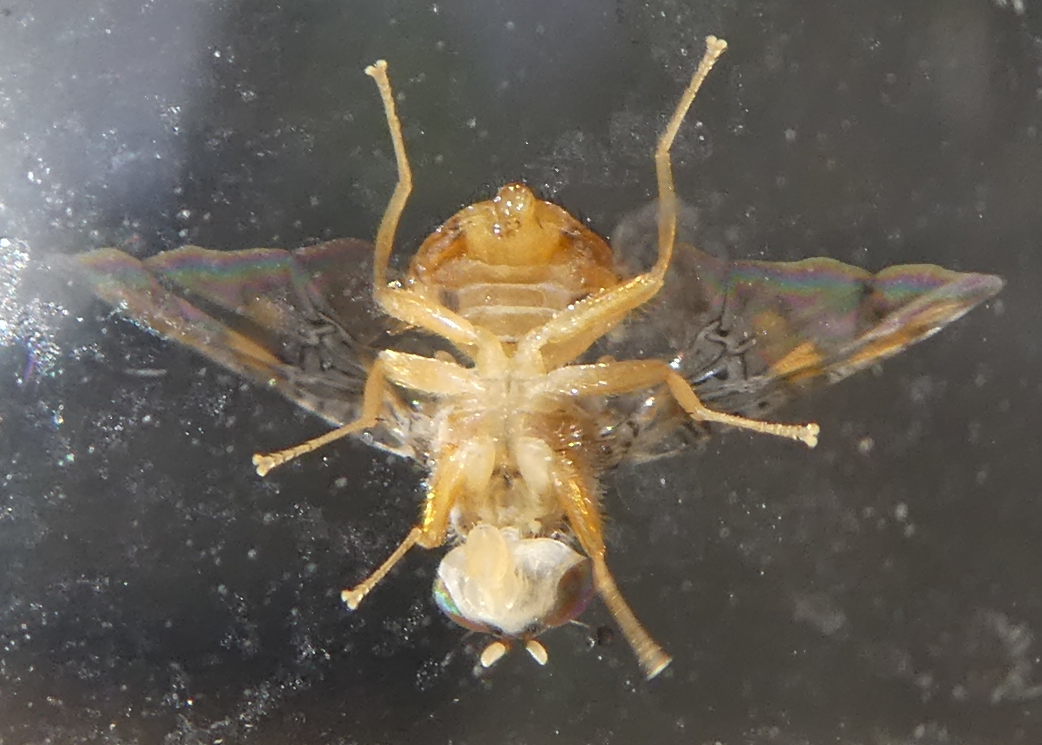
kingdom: Animalia
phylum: Arthropoda
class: Insecta
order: Diptera
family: Tephritidae
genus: Ceratitis
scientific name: Ceratitis capitata
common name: Mediterranean fruit fly
